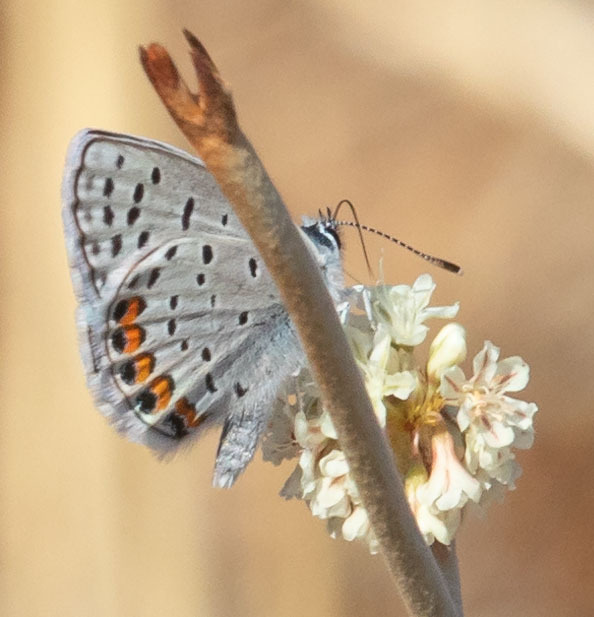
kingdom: Animalia
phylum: Arthropoda
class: Insecta
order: Lepidoptera
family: Lycaenidae
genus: Icaricia
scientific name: Icaricia acmon
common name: Acmon blue
